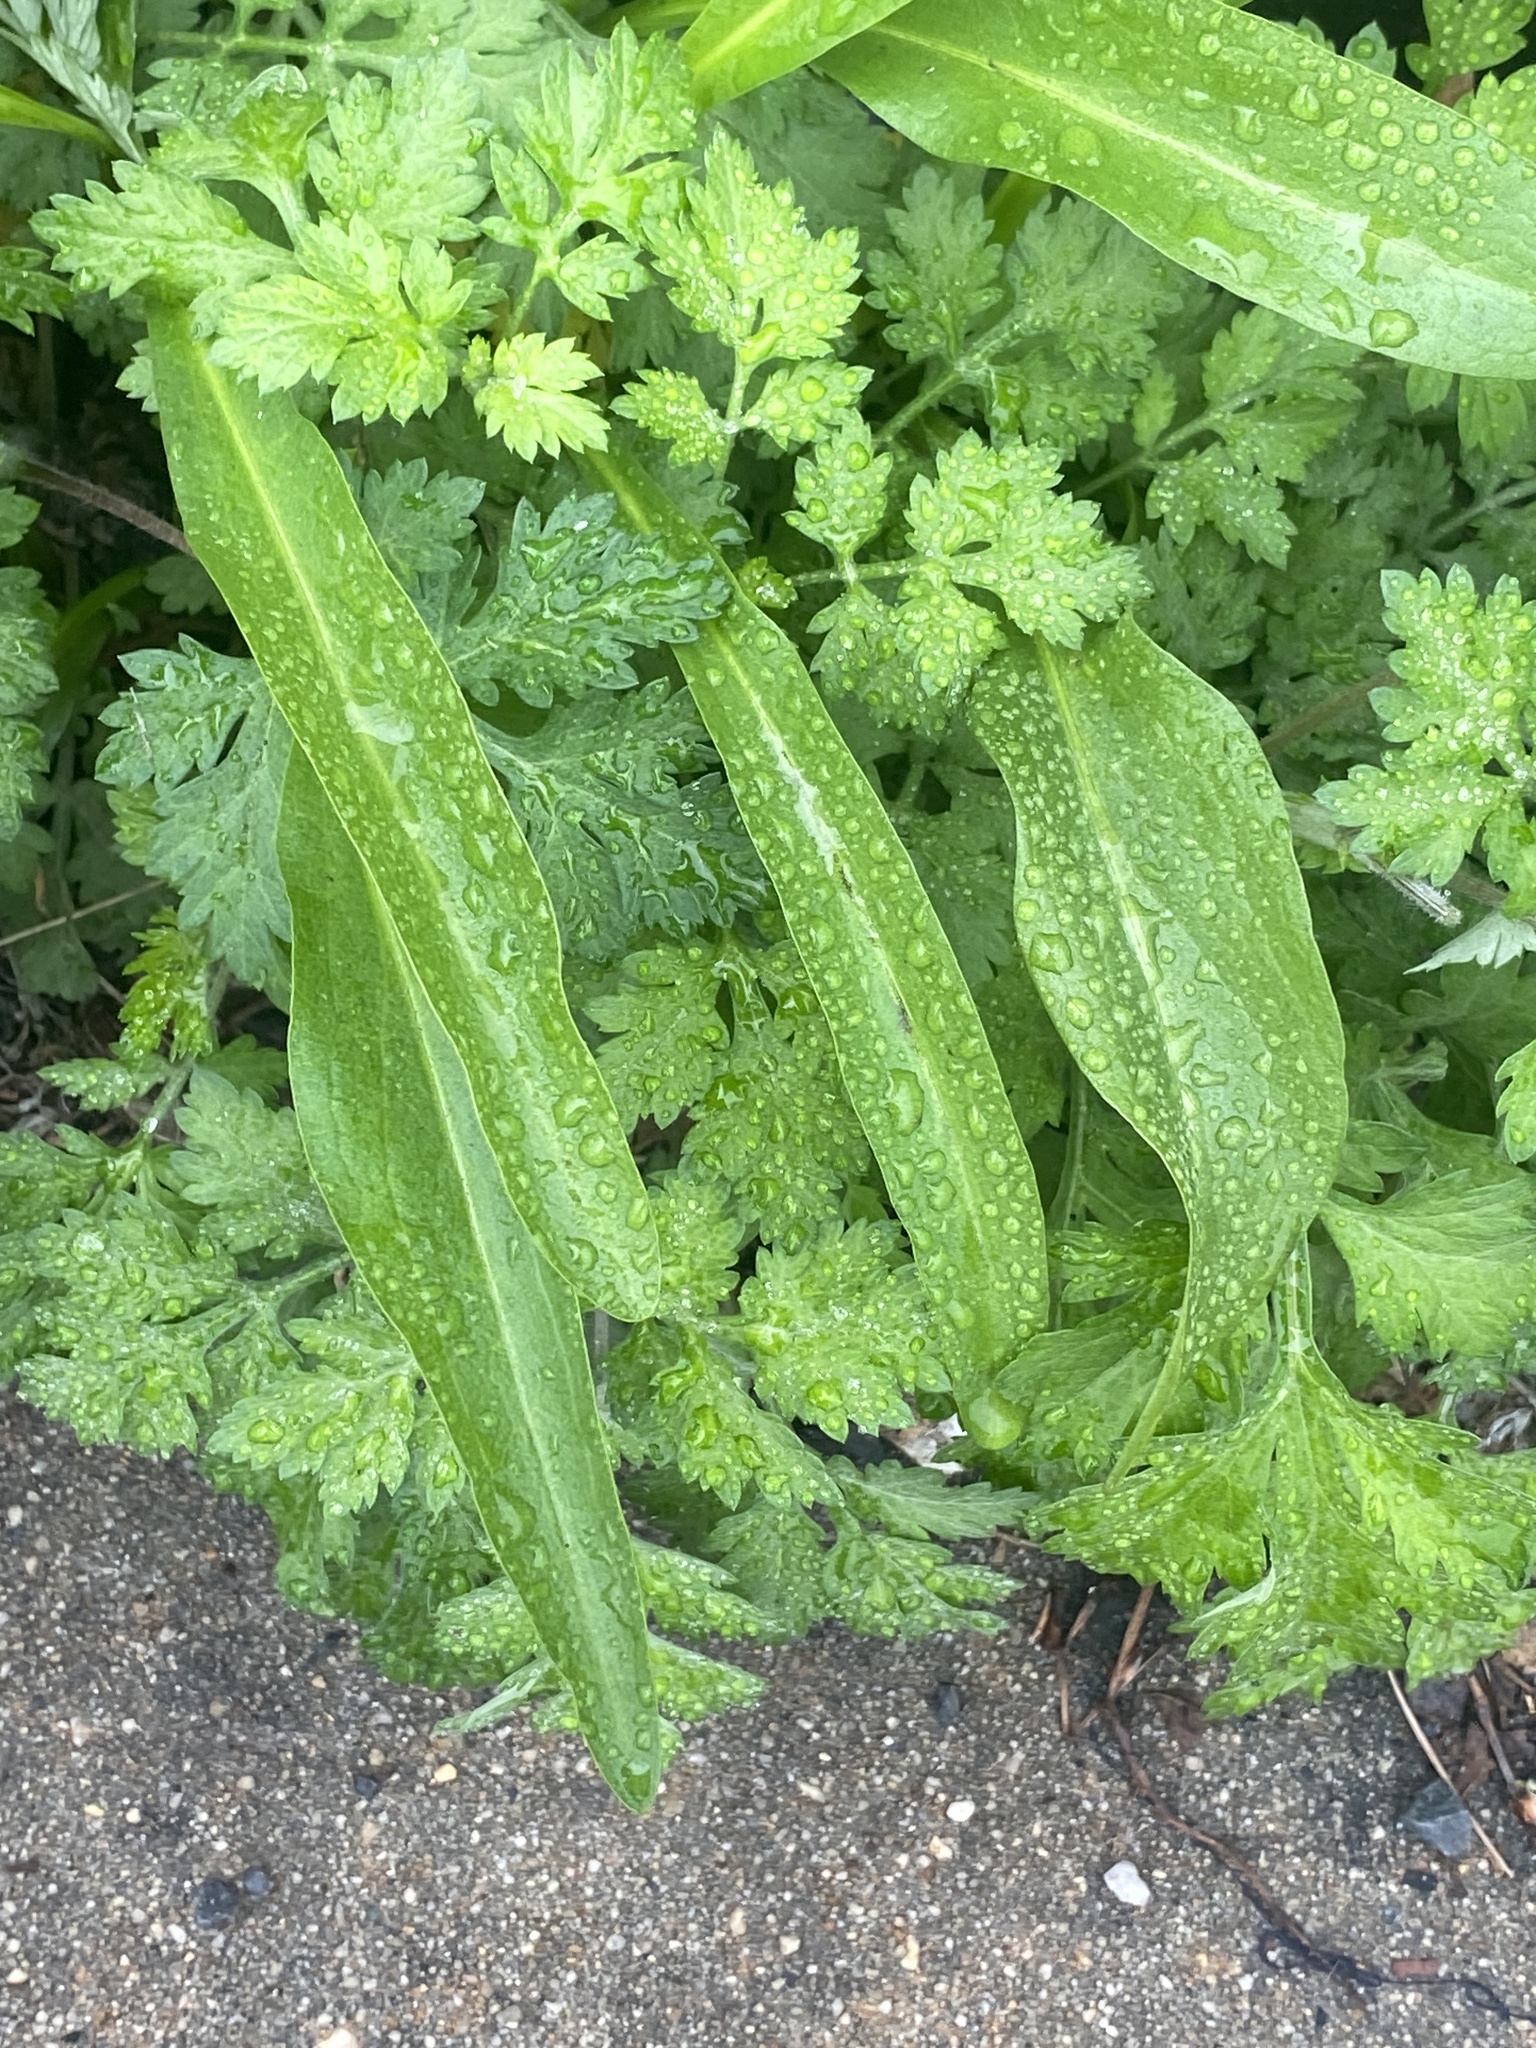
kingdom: Plantae
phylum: Tracheophyta
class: Magnoliopsida
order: Asterales
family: Asteraceae
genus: Solidago
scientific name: Solidago sempervirens
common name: Salt-marsh goldenrod
